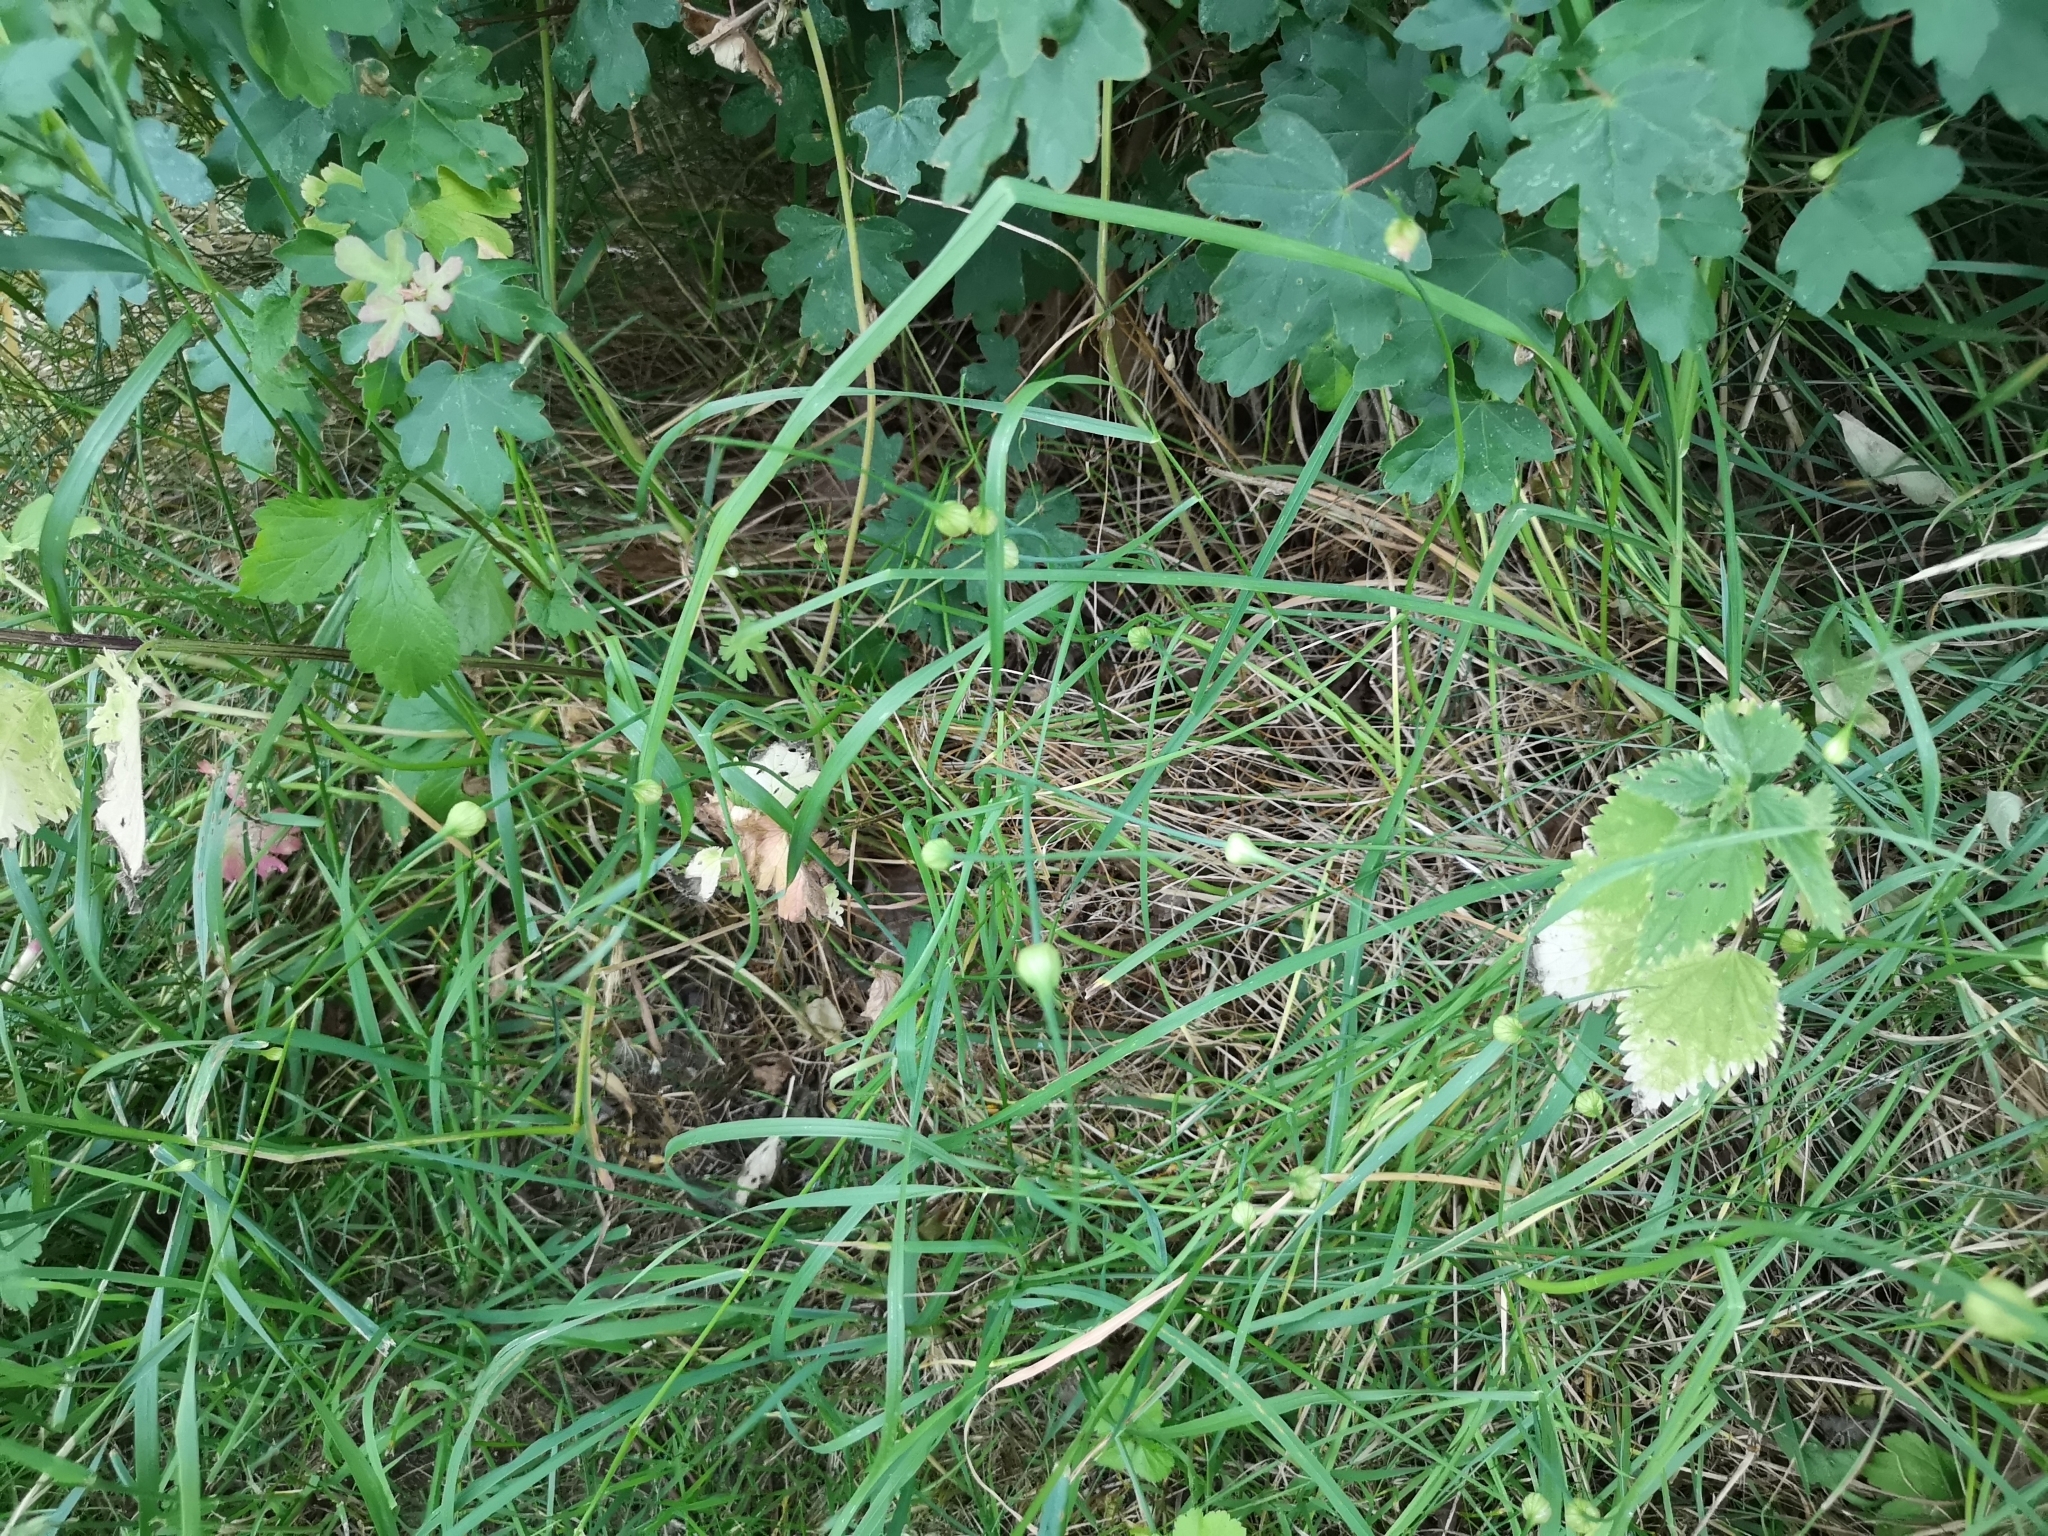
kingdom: Plantae
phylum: Tracheophyta
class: Liliopsida
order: Asparagales
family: Amaryllidaceae
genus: Allium
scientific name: Allium oleraceum
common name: Field garlic
